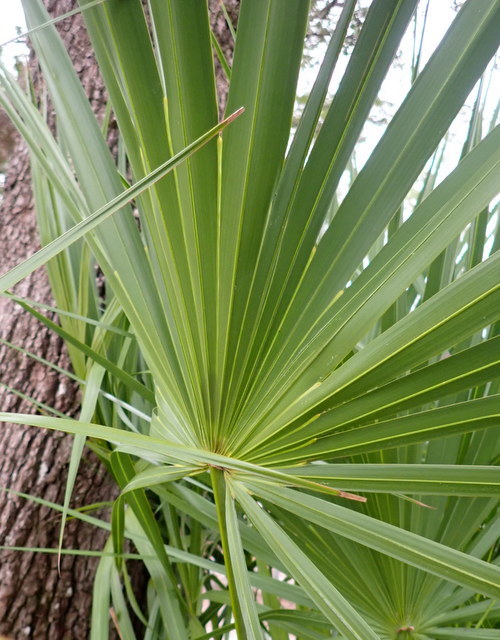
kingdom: Plantae
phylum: Tracheophyta
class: Liliopsida
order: Arecales
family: Arecaceae
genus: Serenoa
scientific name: Serenoa repens
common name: Saw-palmetto
